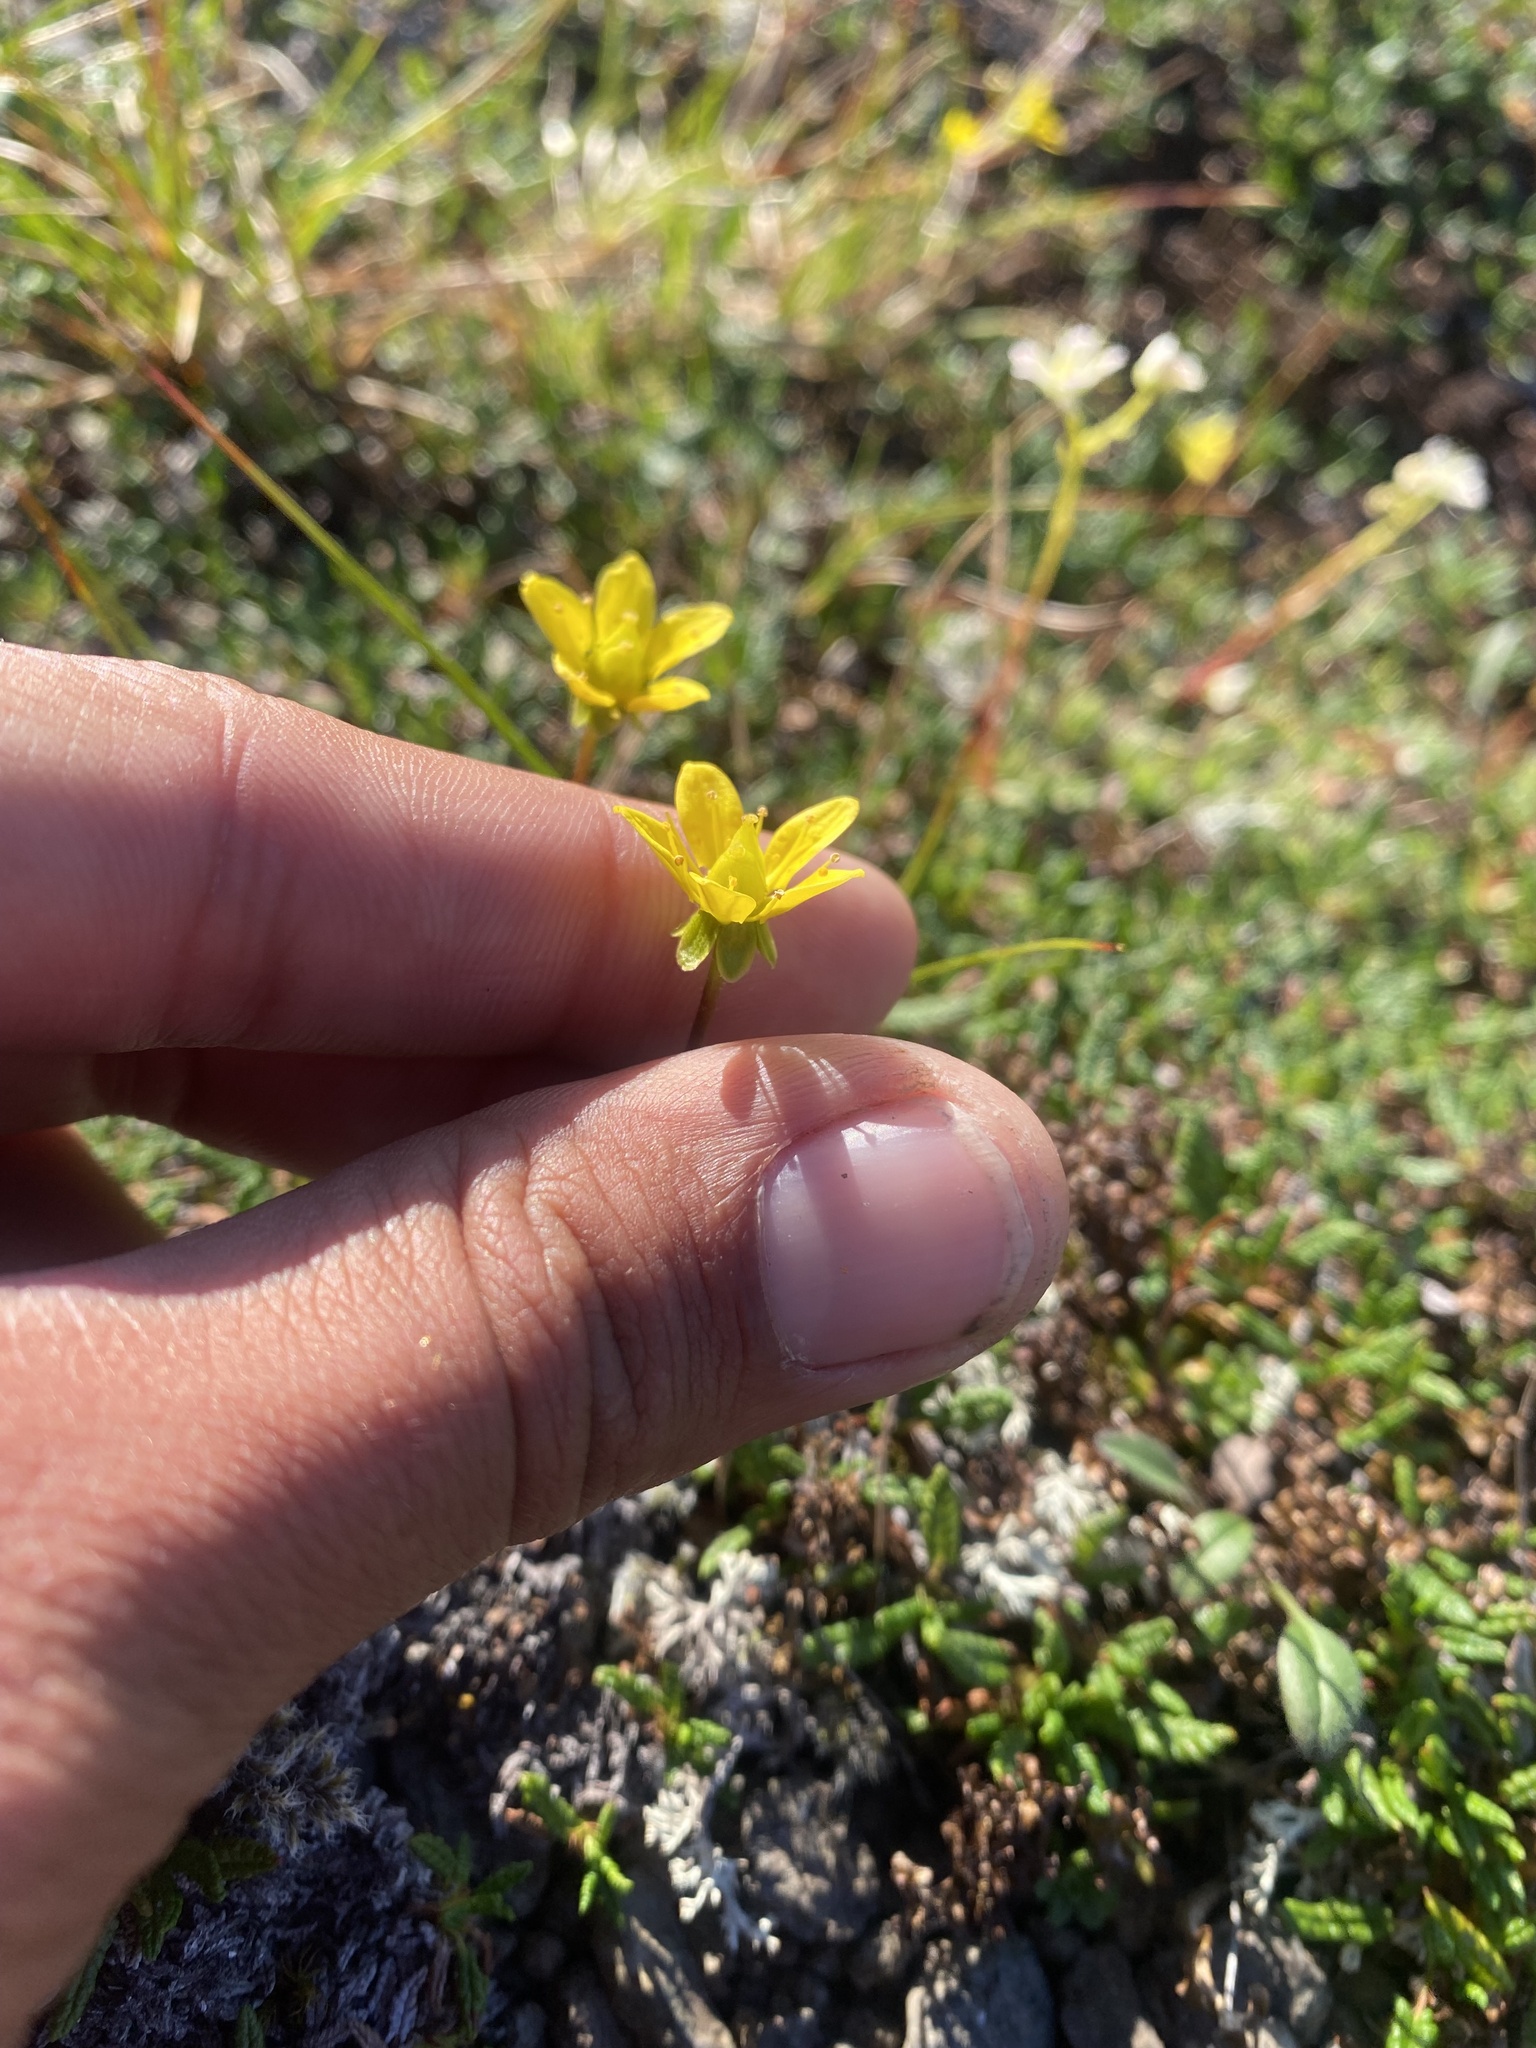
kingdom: Plantae
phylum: Tracheophyta
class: Magnoliopsida
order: Saxifragales
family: Saxifragaceae
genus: Saxifraga
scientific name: Saxifraga hirculus
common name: Yellow marsh saxifrage
